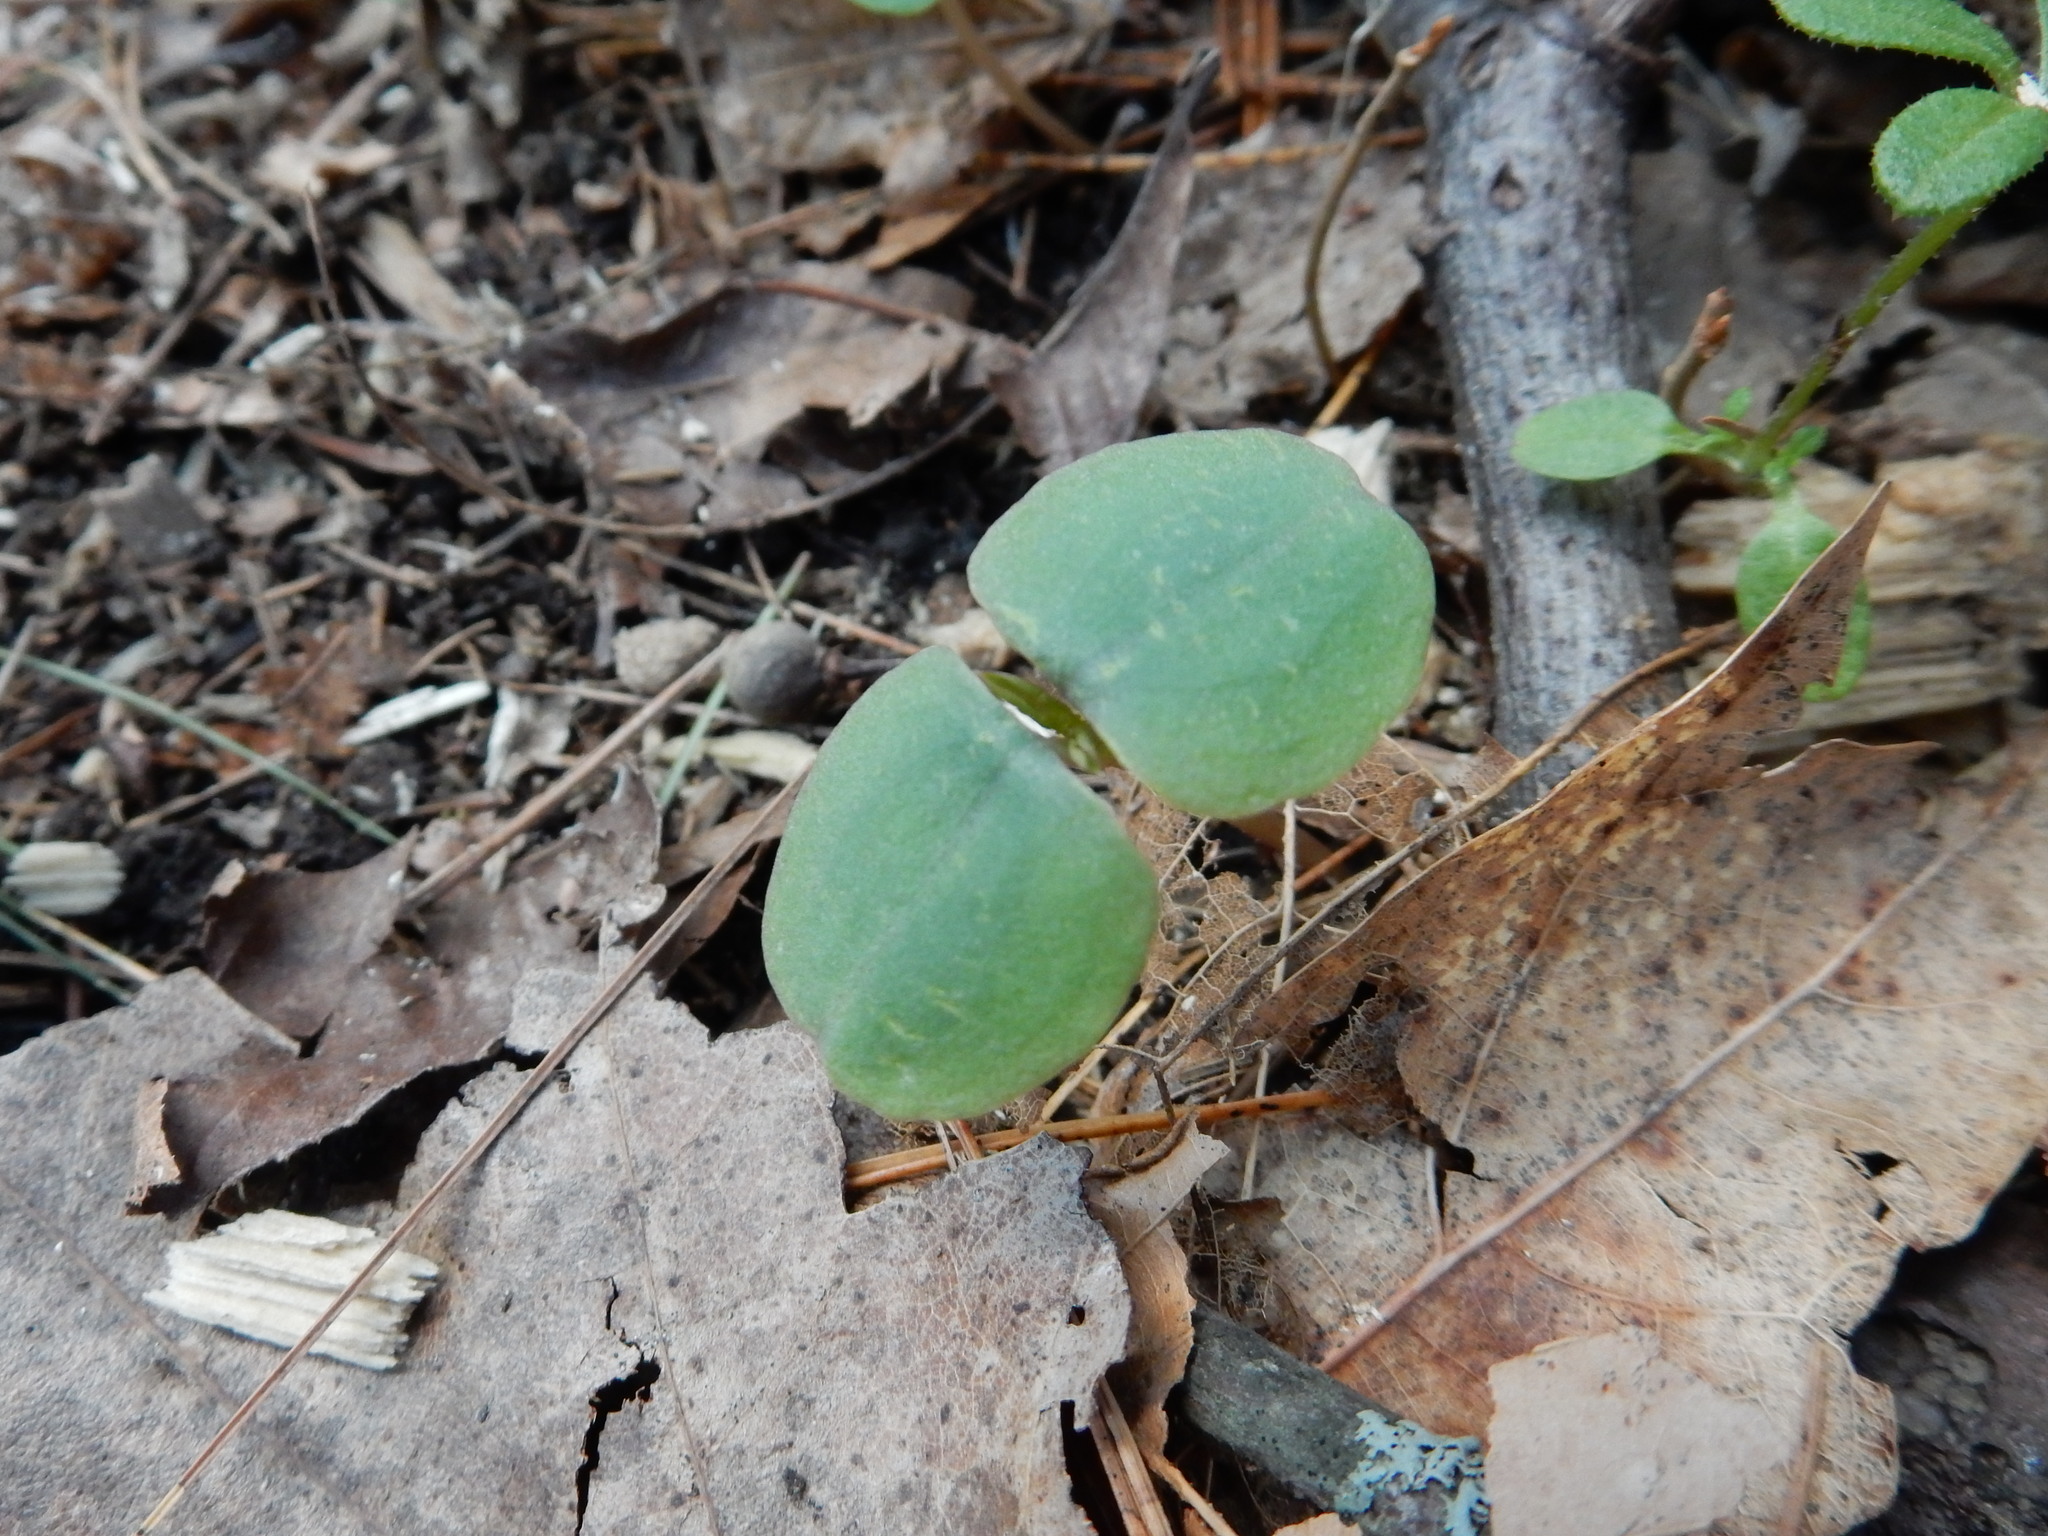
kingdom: Plantae
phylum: Tracheophyta
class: Magnoliopsida
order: Ericales
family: Balsaminaceae
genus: Impatiens
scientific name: Impatiens
